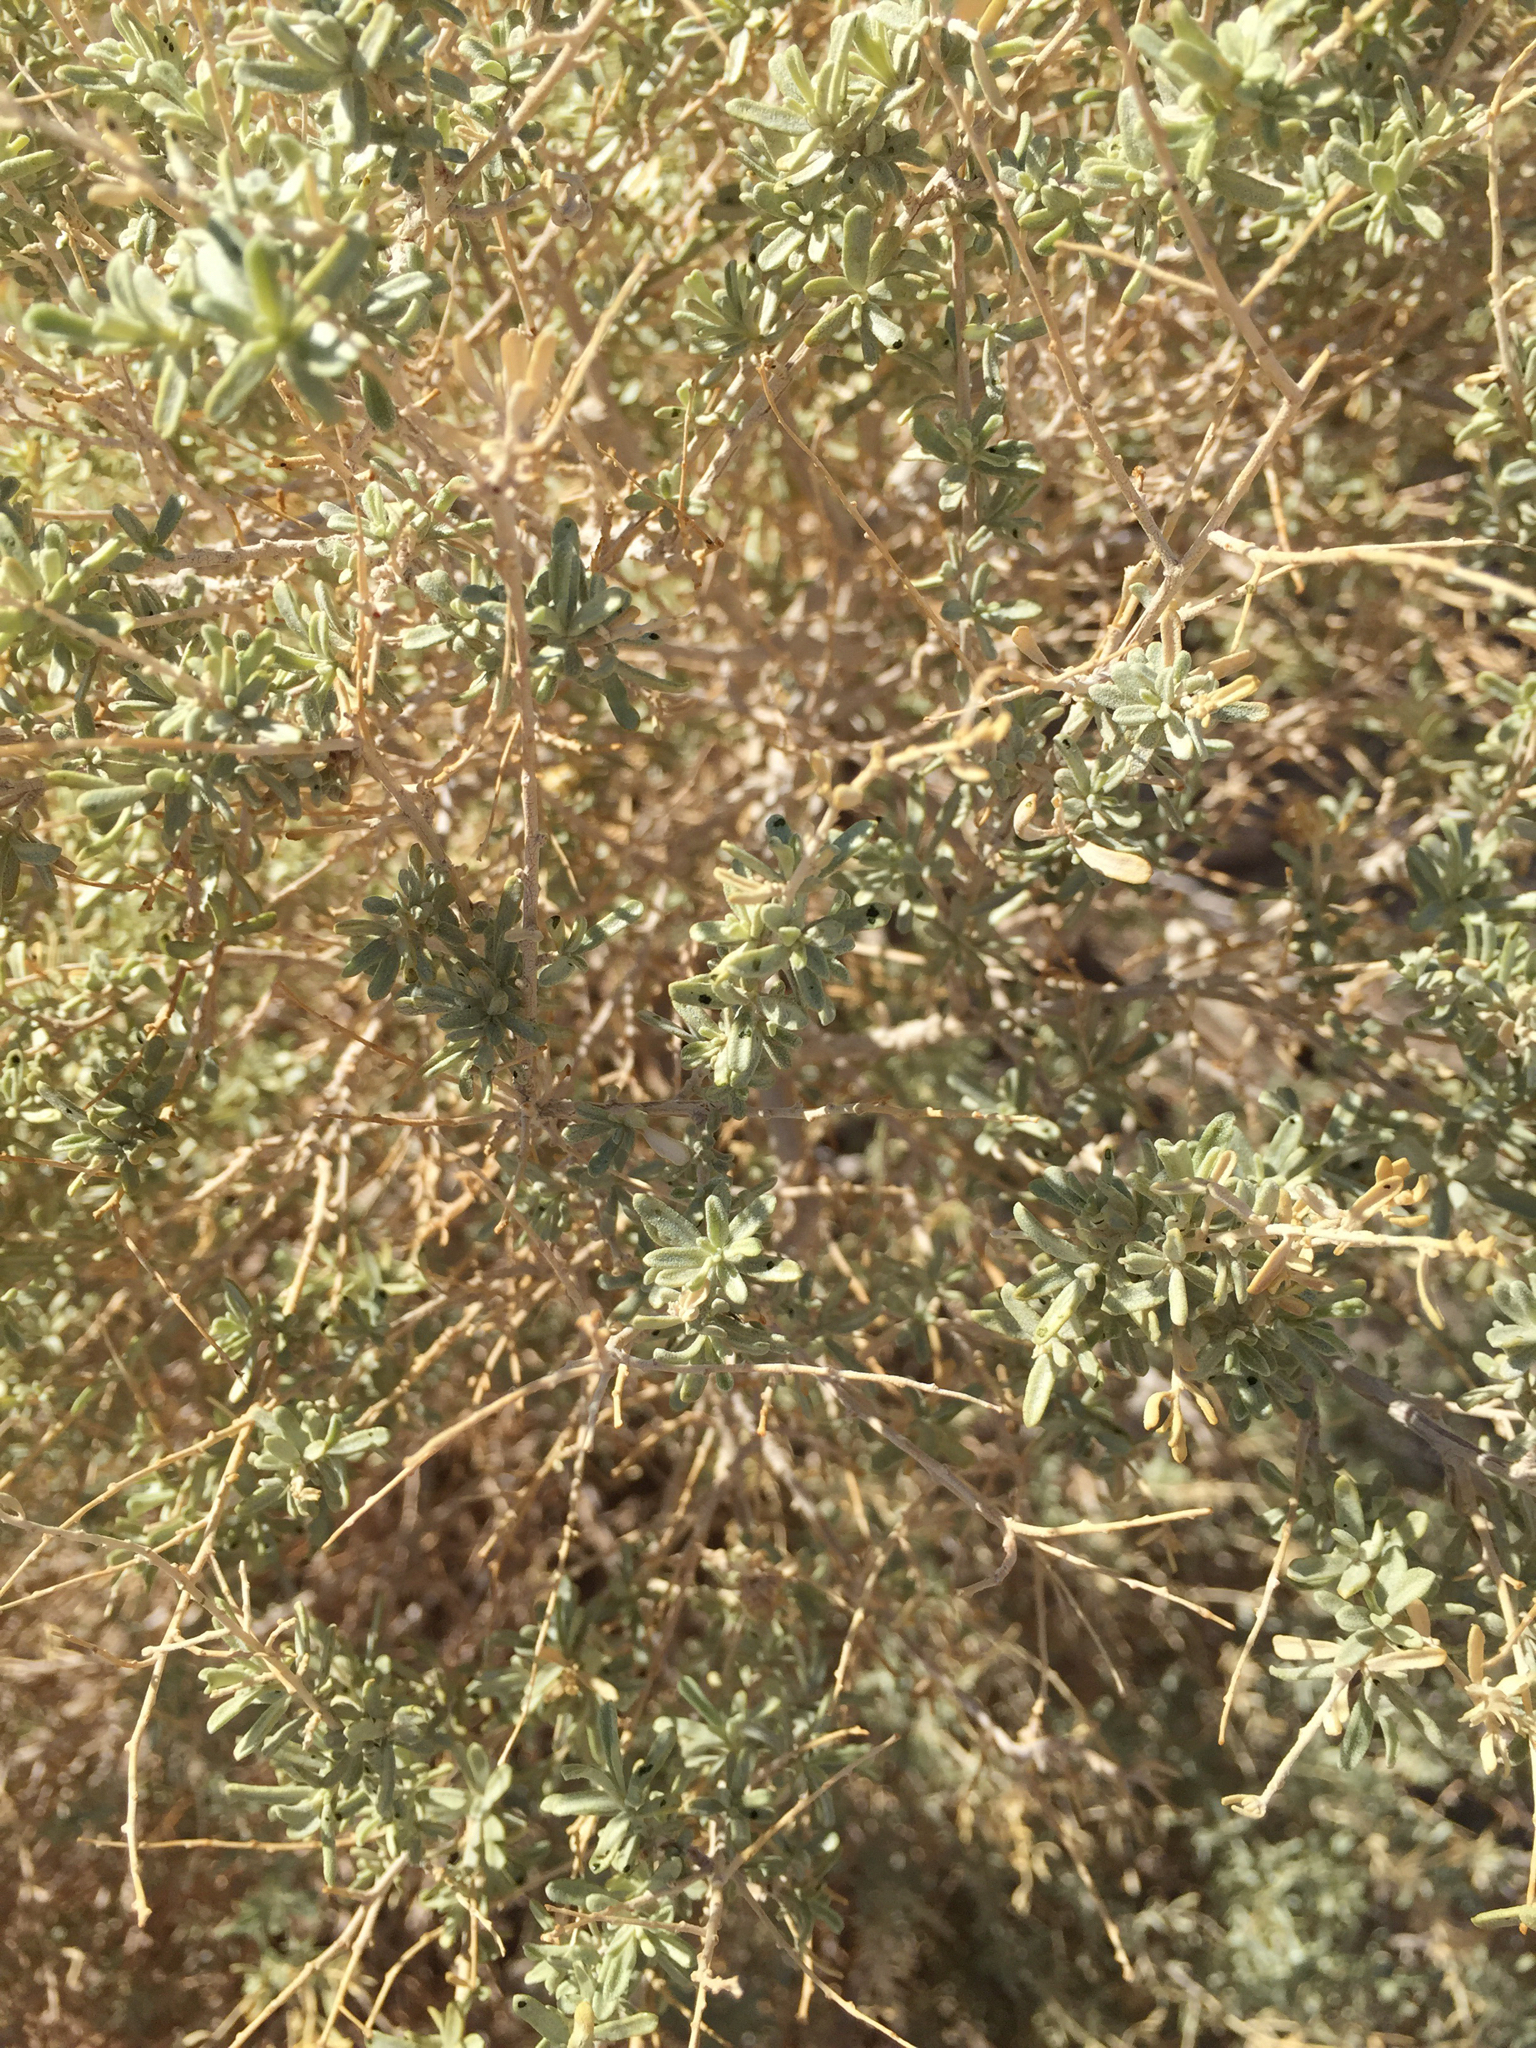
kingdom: Plantae
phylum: Tracheophyta
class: Magnoliopsida
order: Caryophyllales
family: Amaranthaceae
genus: Atriplex
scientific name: Atriplex canescens
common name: Four-wing saltbush
